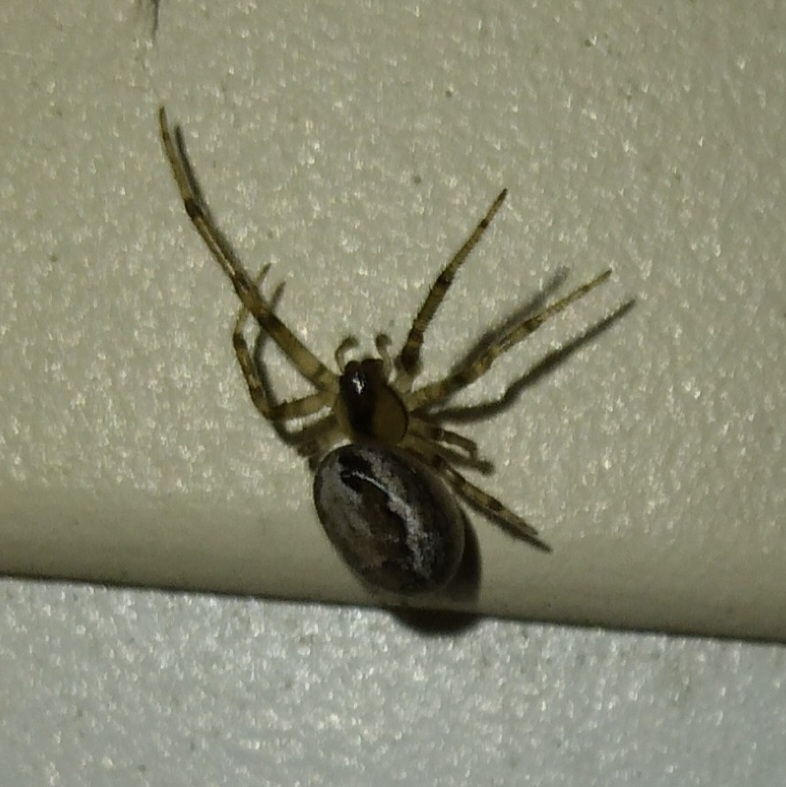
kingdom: Animalia
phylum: Arthropoda
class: Arachnida
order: Araneae
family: Araneidae
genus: Zygiella
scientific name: Zygiella x-notata
